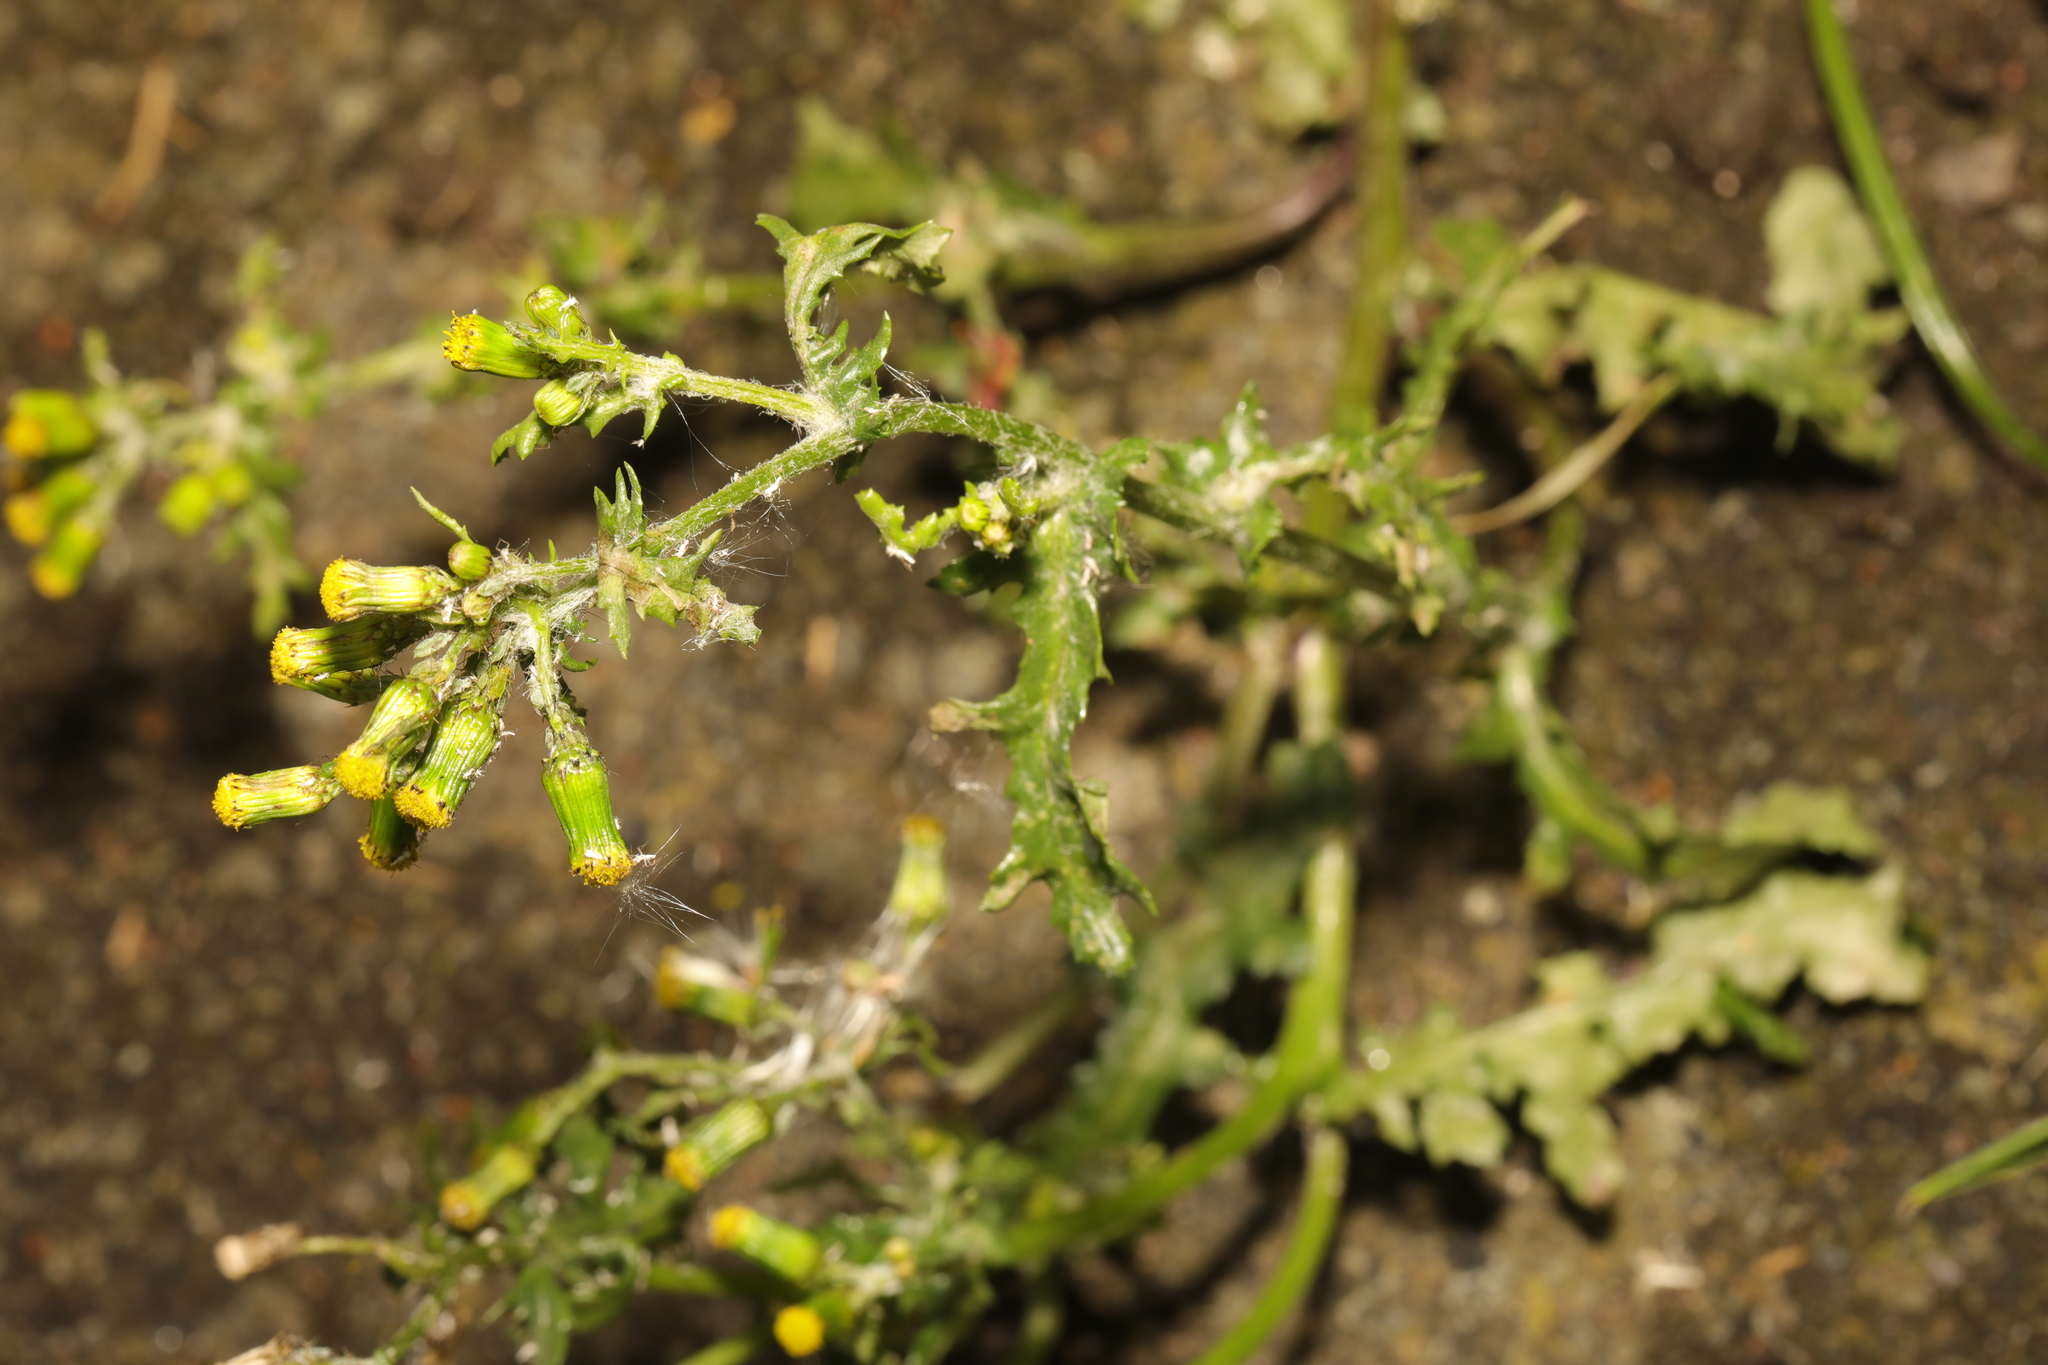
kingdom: Plantae
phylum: Tracheophyta
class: Magnoliopsida
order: Asterales
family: Asteraceae
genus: Senecio
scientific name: Senecio vulgaris
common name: Old-man-in-the-spring
